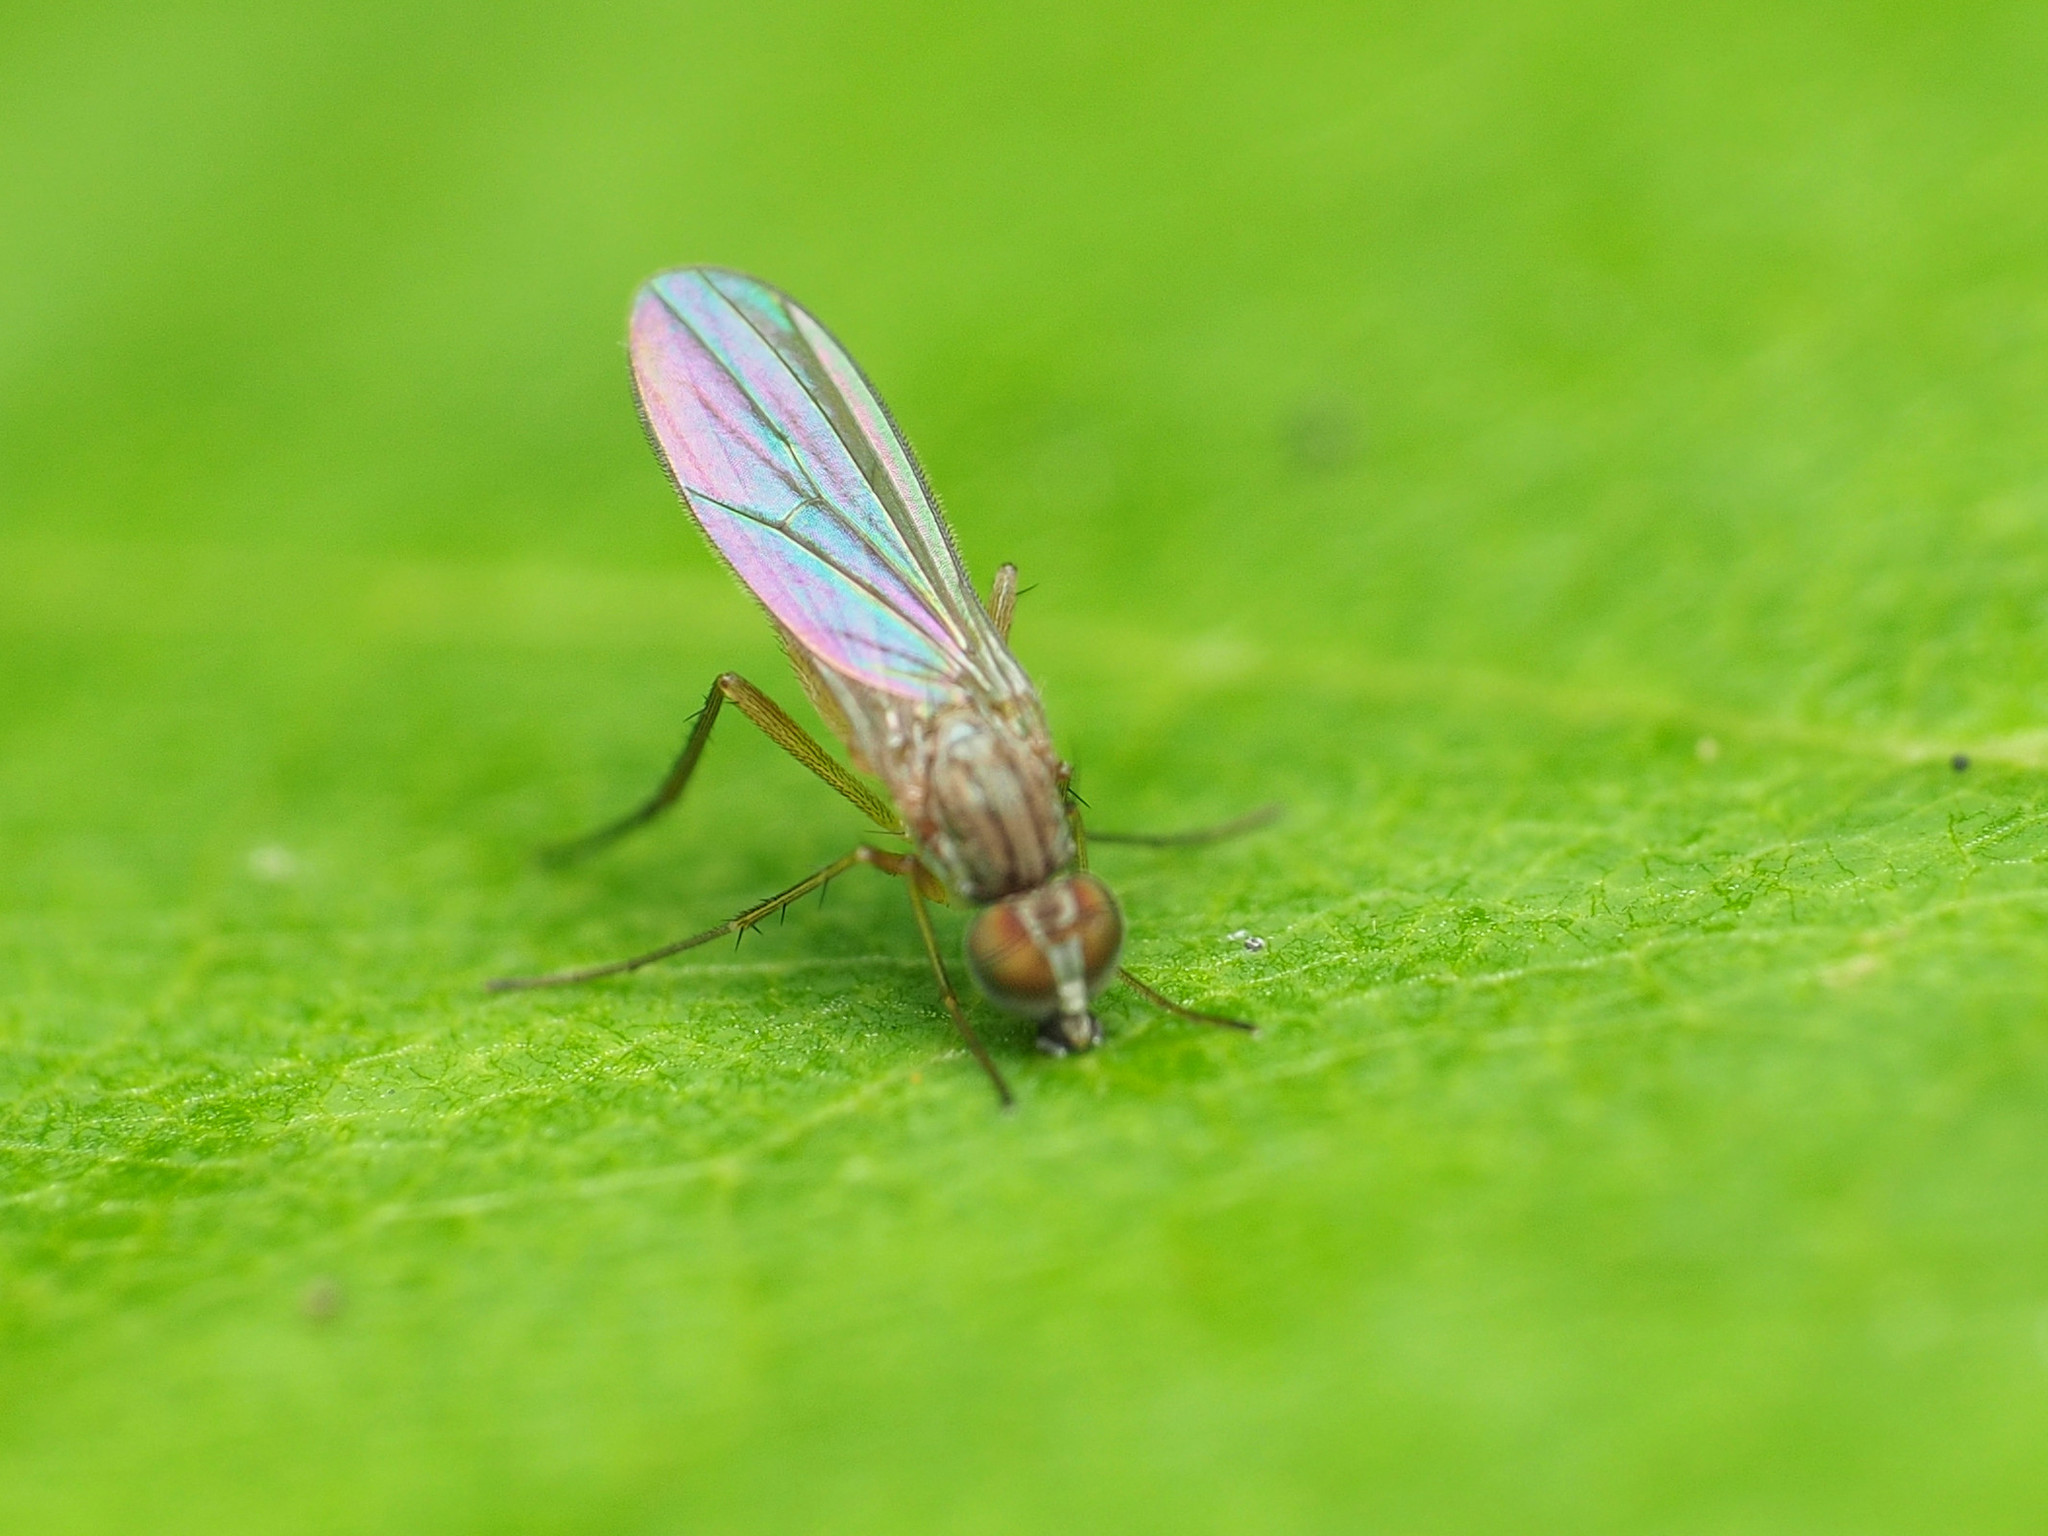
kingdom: Animalia
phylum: Arthropoda
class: Insecta
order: Diptera
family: Dolichopodidae
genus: Sympycnus
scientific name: Sympycnus lineatus
